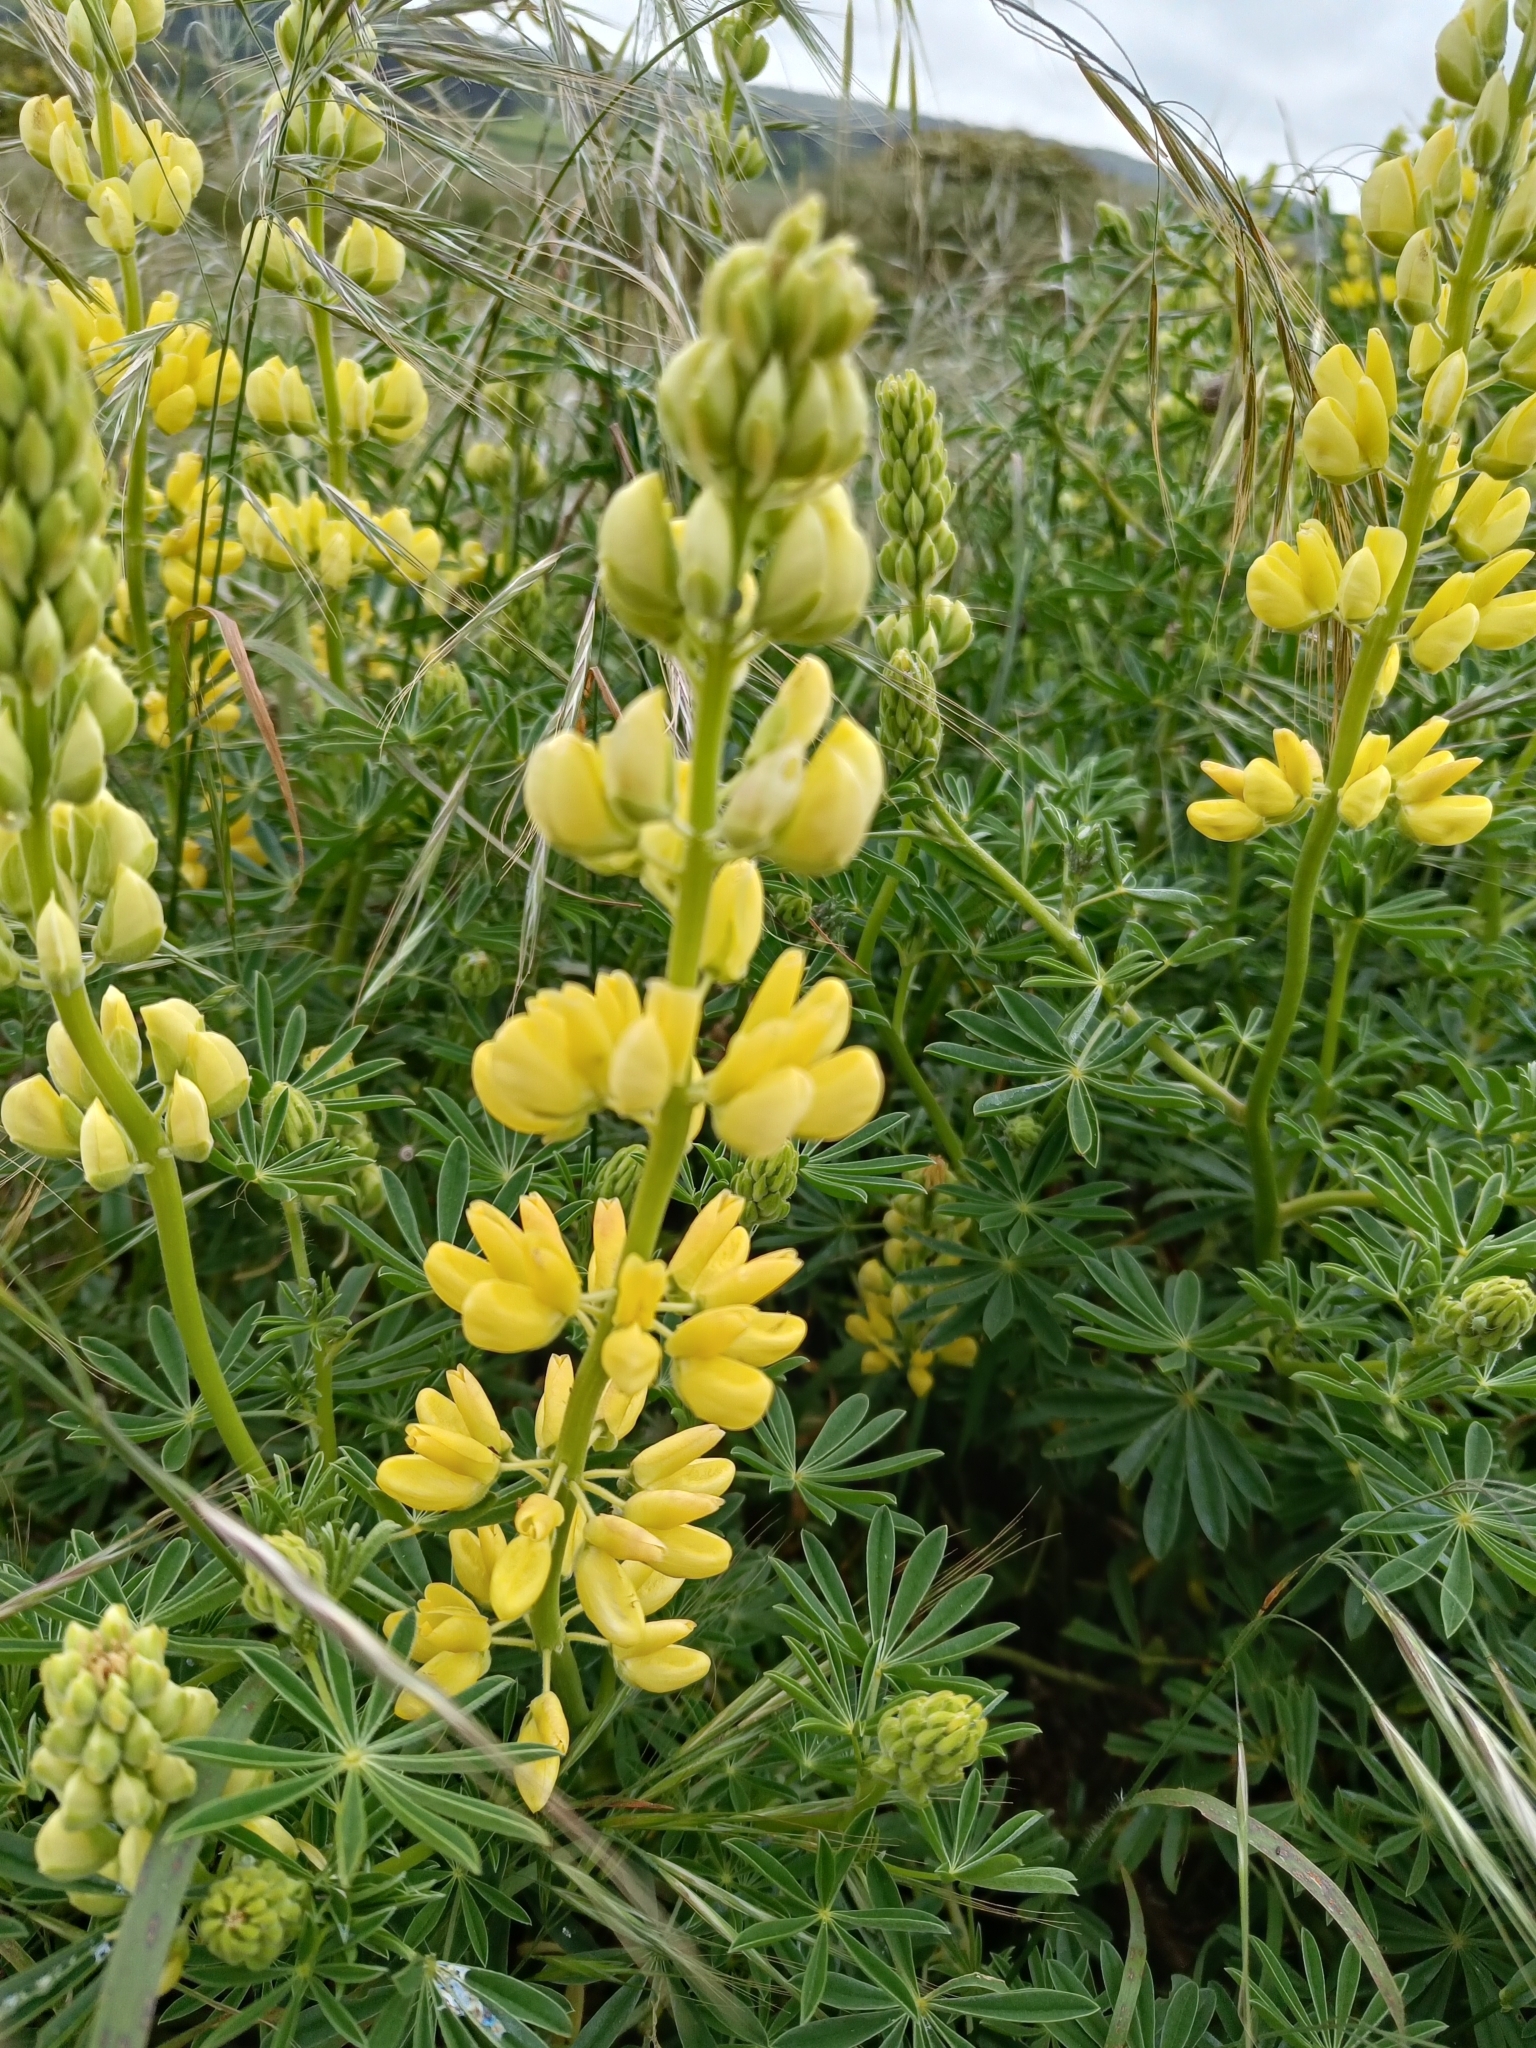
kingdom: Plantae
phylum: Tracheophyta
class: Magnoliopsida
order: Fabales
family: Fabaceae
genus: Lupinus
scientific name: Lupinus arboreus
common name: Yellow bush lupine
